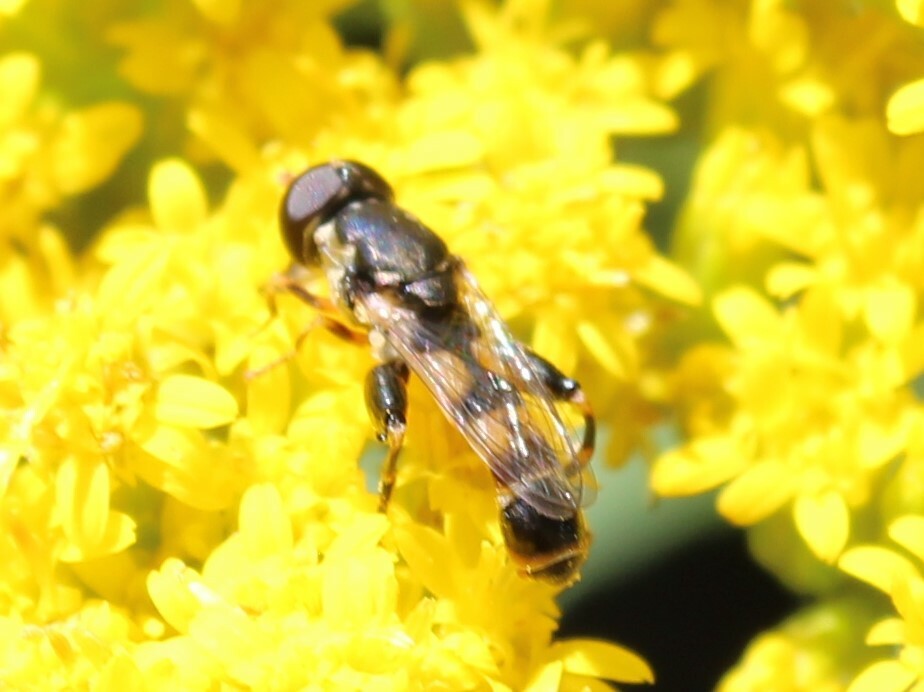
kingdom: Animalia
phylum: Arthropoda
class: Insecta
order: Diptera
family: Syrphidae
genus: Syritta
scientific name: Syritta pipiens
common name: Hover fly
